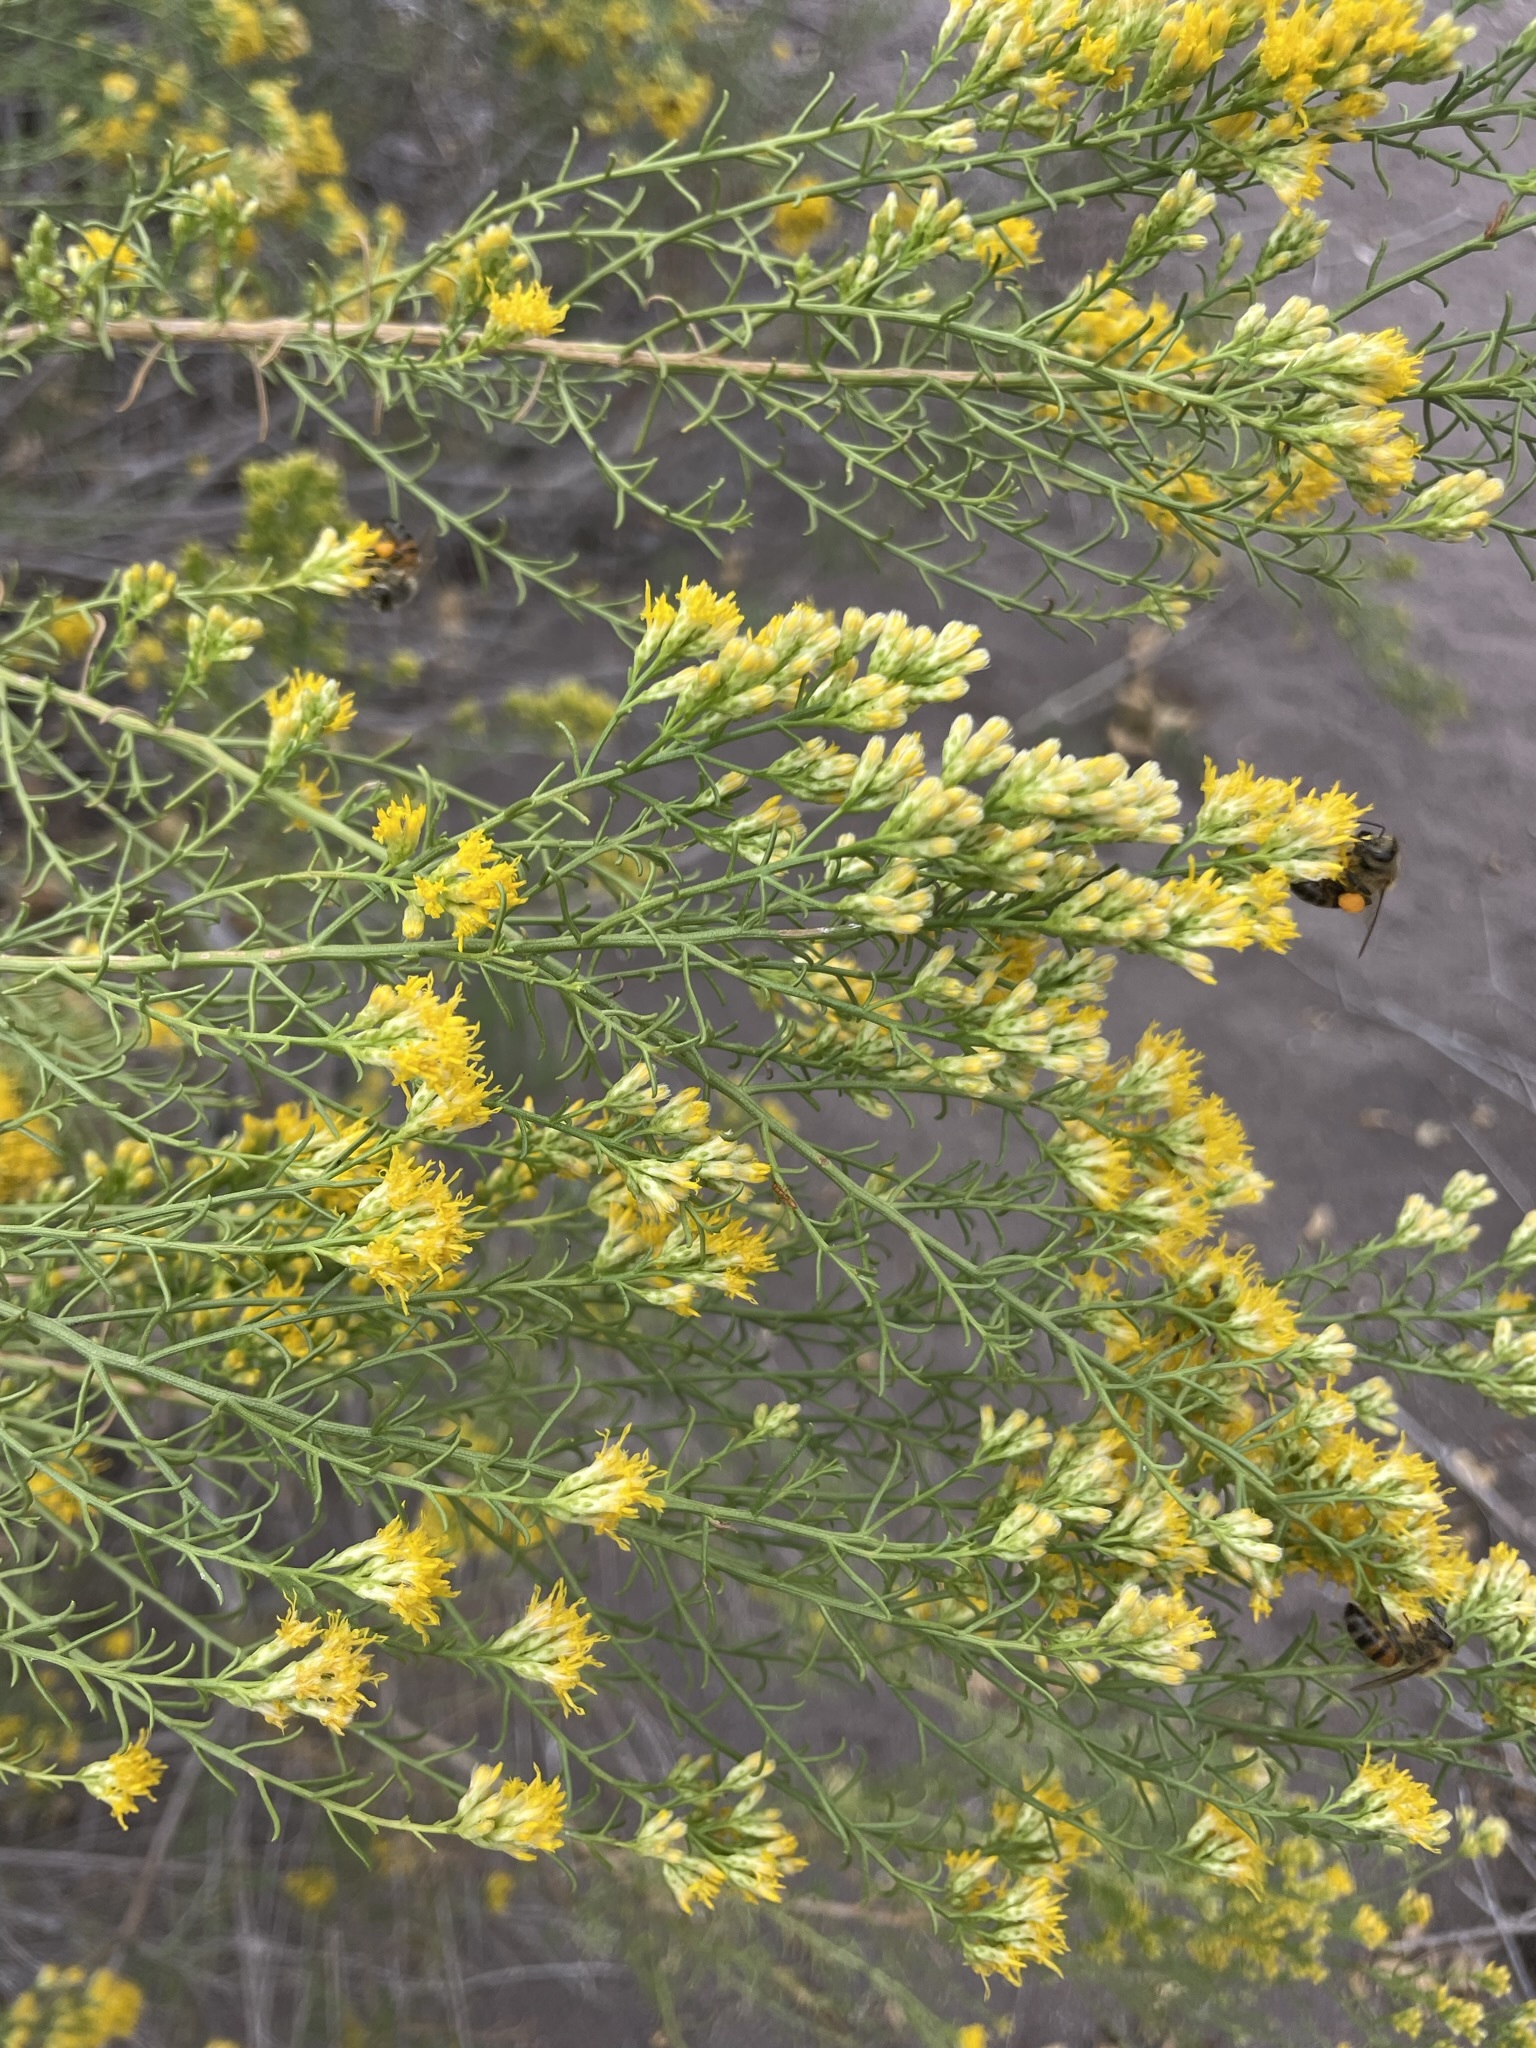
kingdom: Plantae
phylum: Tracheophyta
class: Magnoliopsida
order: Asterales
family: Asteraceae
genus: Gundlachia
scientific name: Gundlachia diffusa
